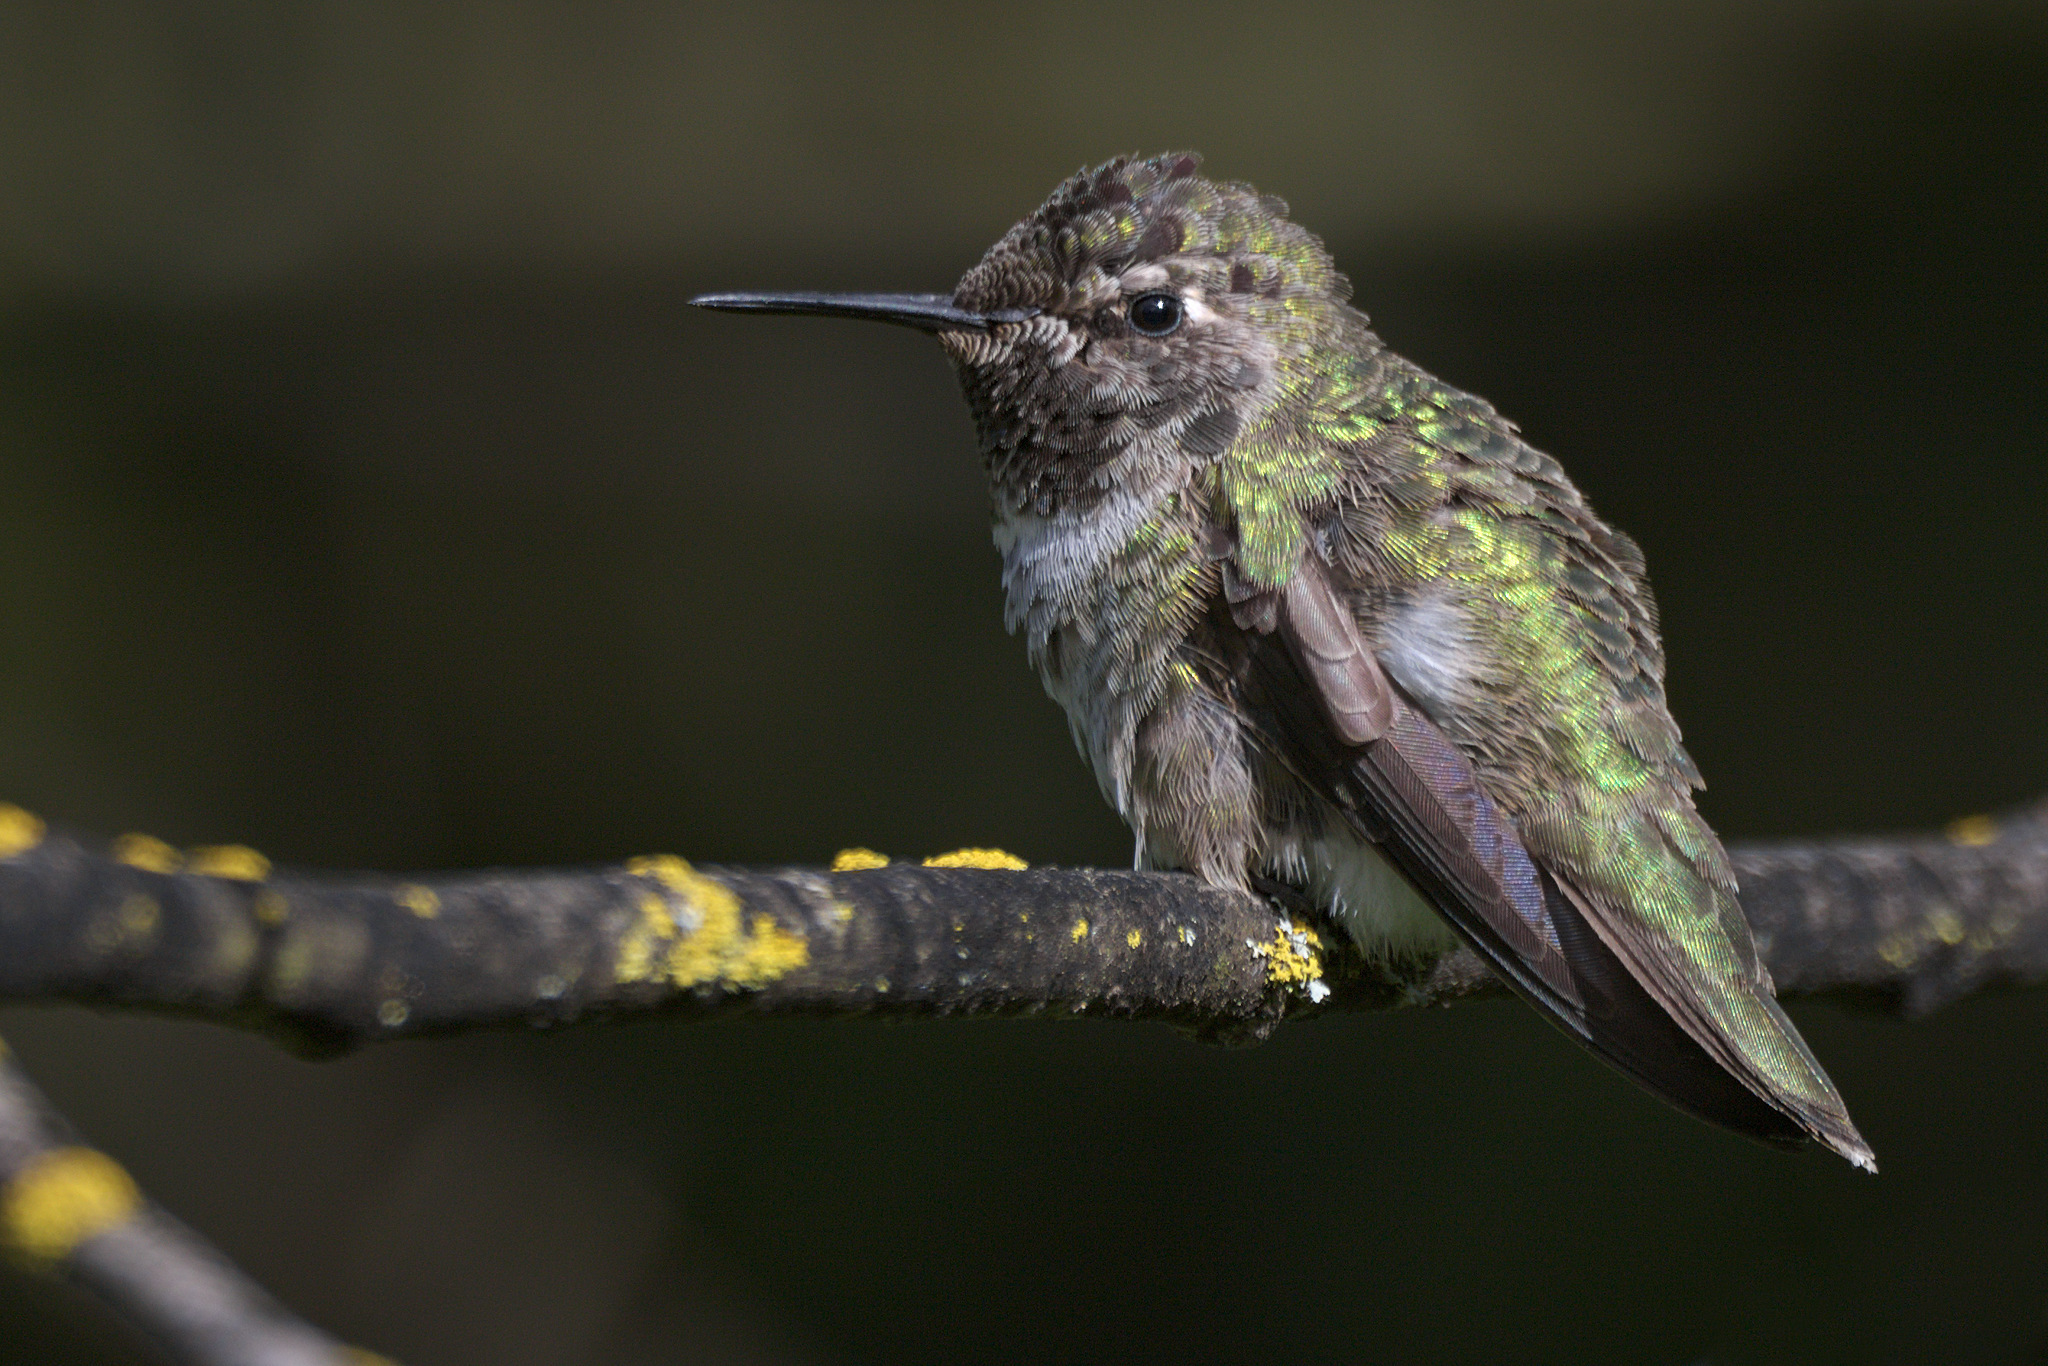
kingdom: Animalia
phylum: Chordata
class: Aves
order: Apodiformes
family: Trochilidae
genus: Calypte
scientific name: Calypte anna
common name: Anna's hummingbird
